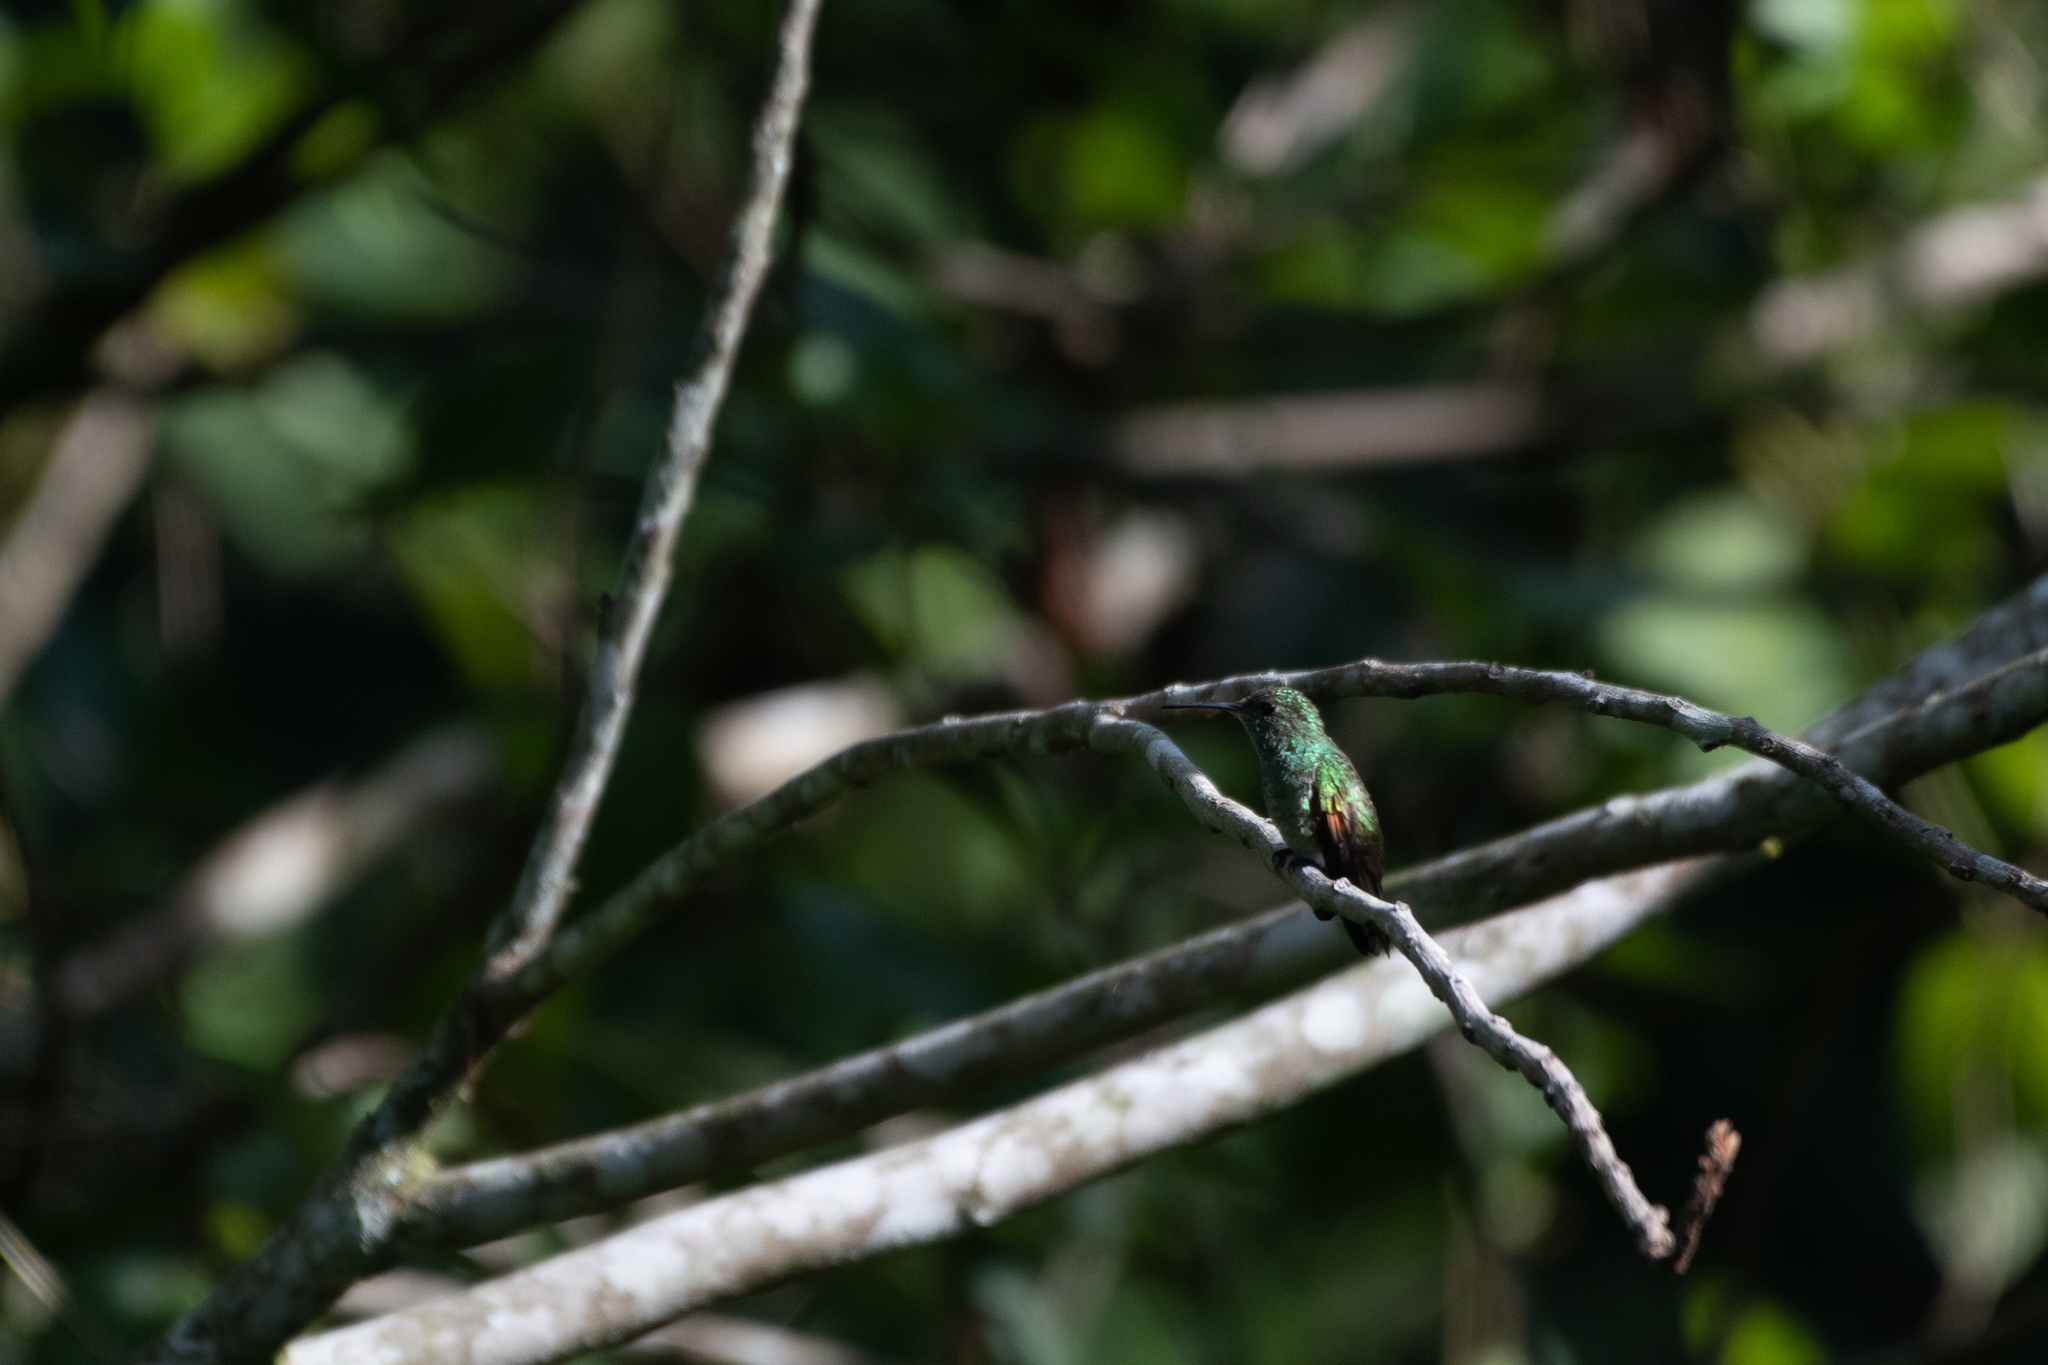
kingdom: Animalia
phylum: Chordata
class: Aves
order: Apodiformes
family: Trochilidae
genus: Saucerottia
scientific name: Saucerottia beryllina
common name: Berylline hummingbird
